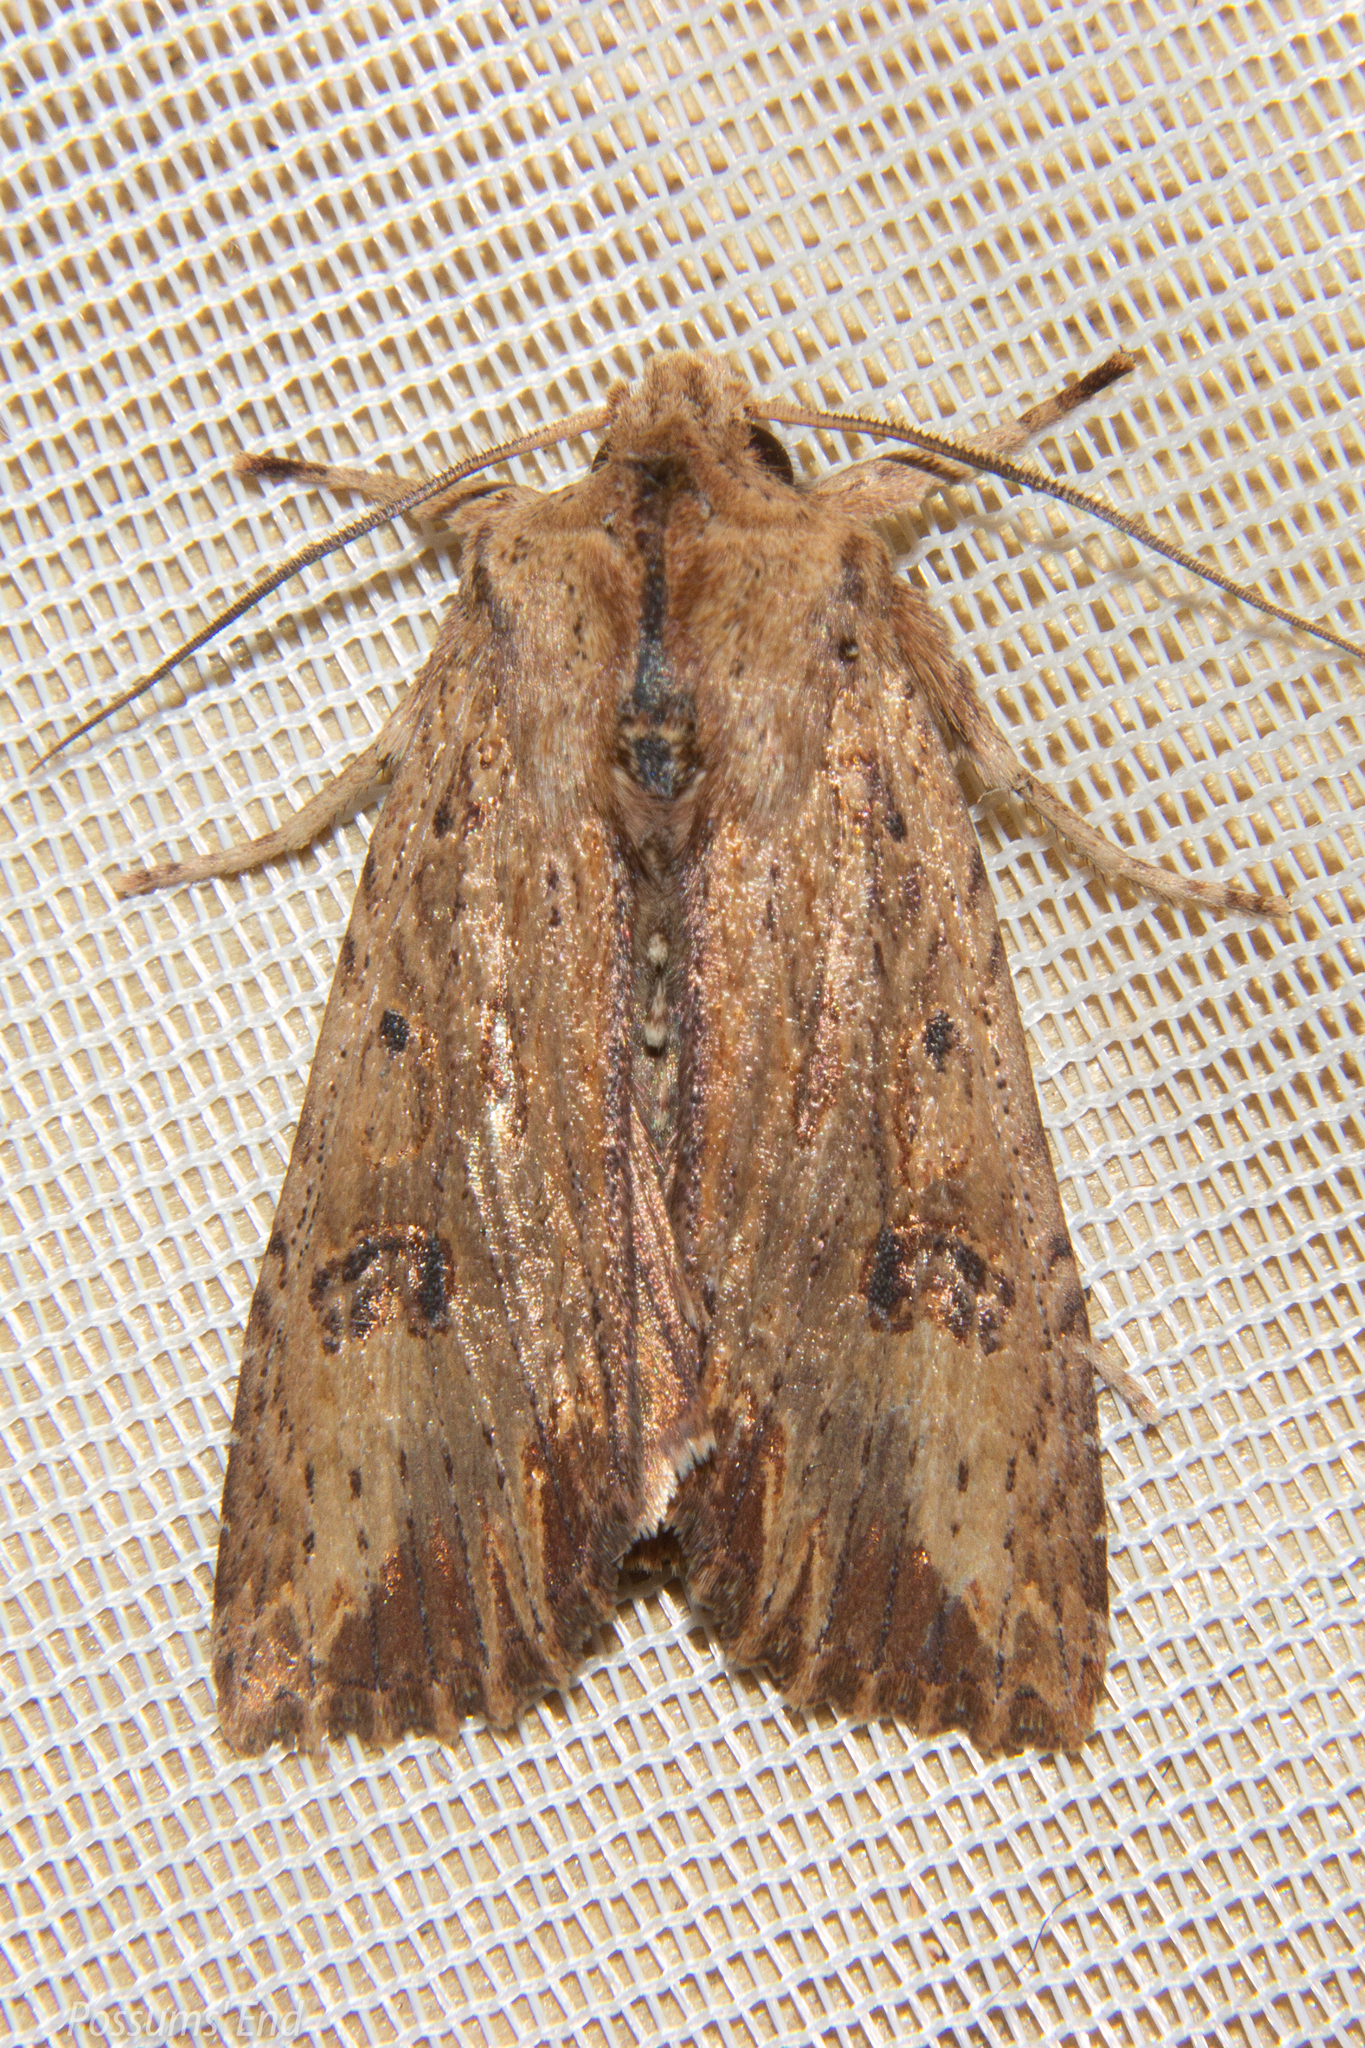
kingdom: Animalia
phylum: Arthropoda
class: Insecta
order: Lepidoptera
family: Noctuidae
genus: Ichneutica
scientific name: Ichneutica
